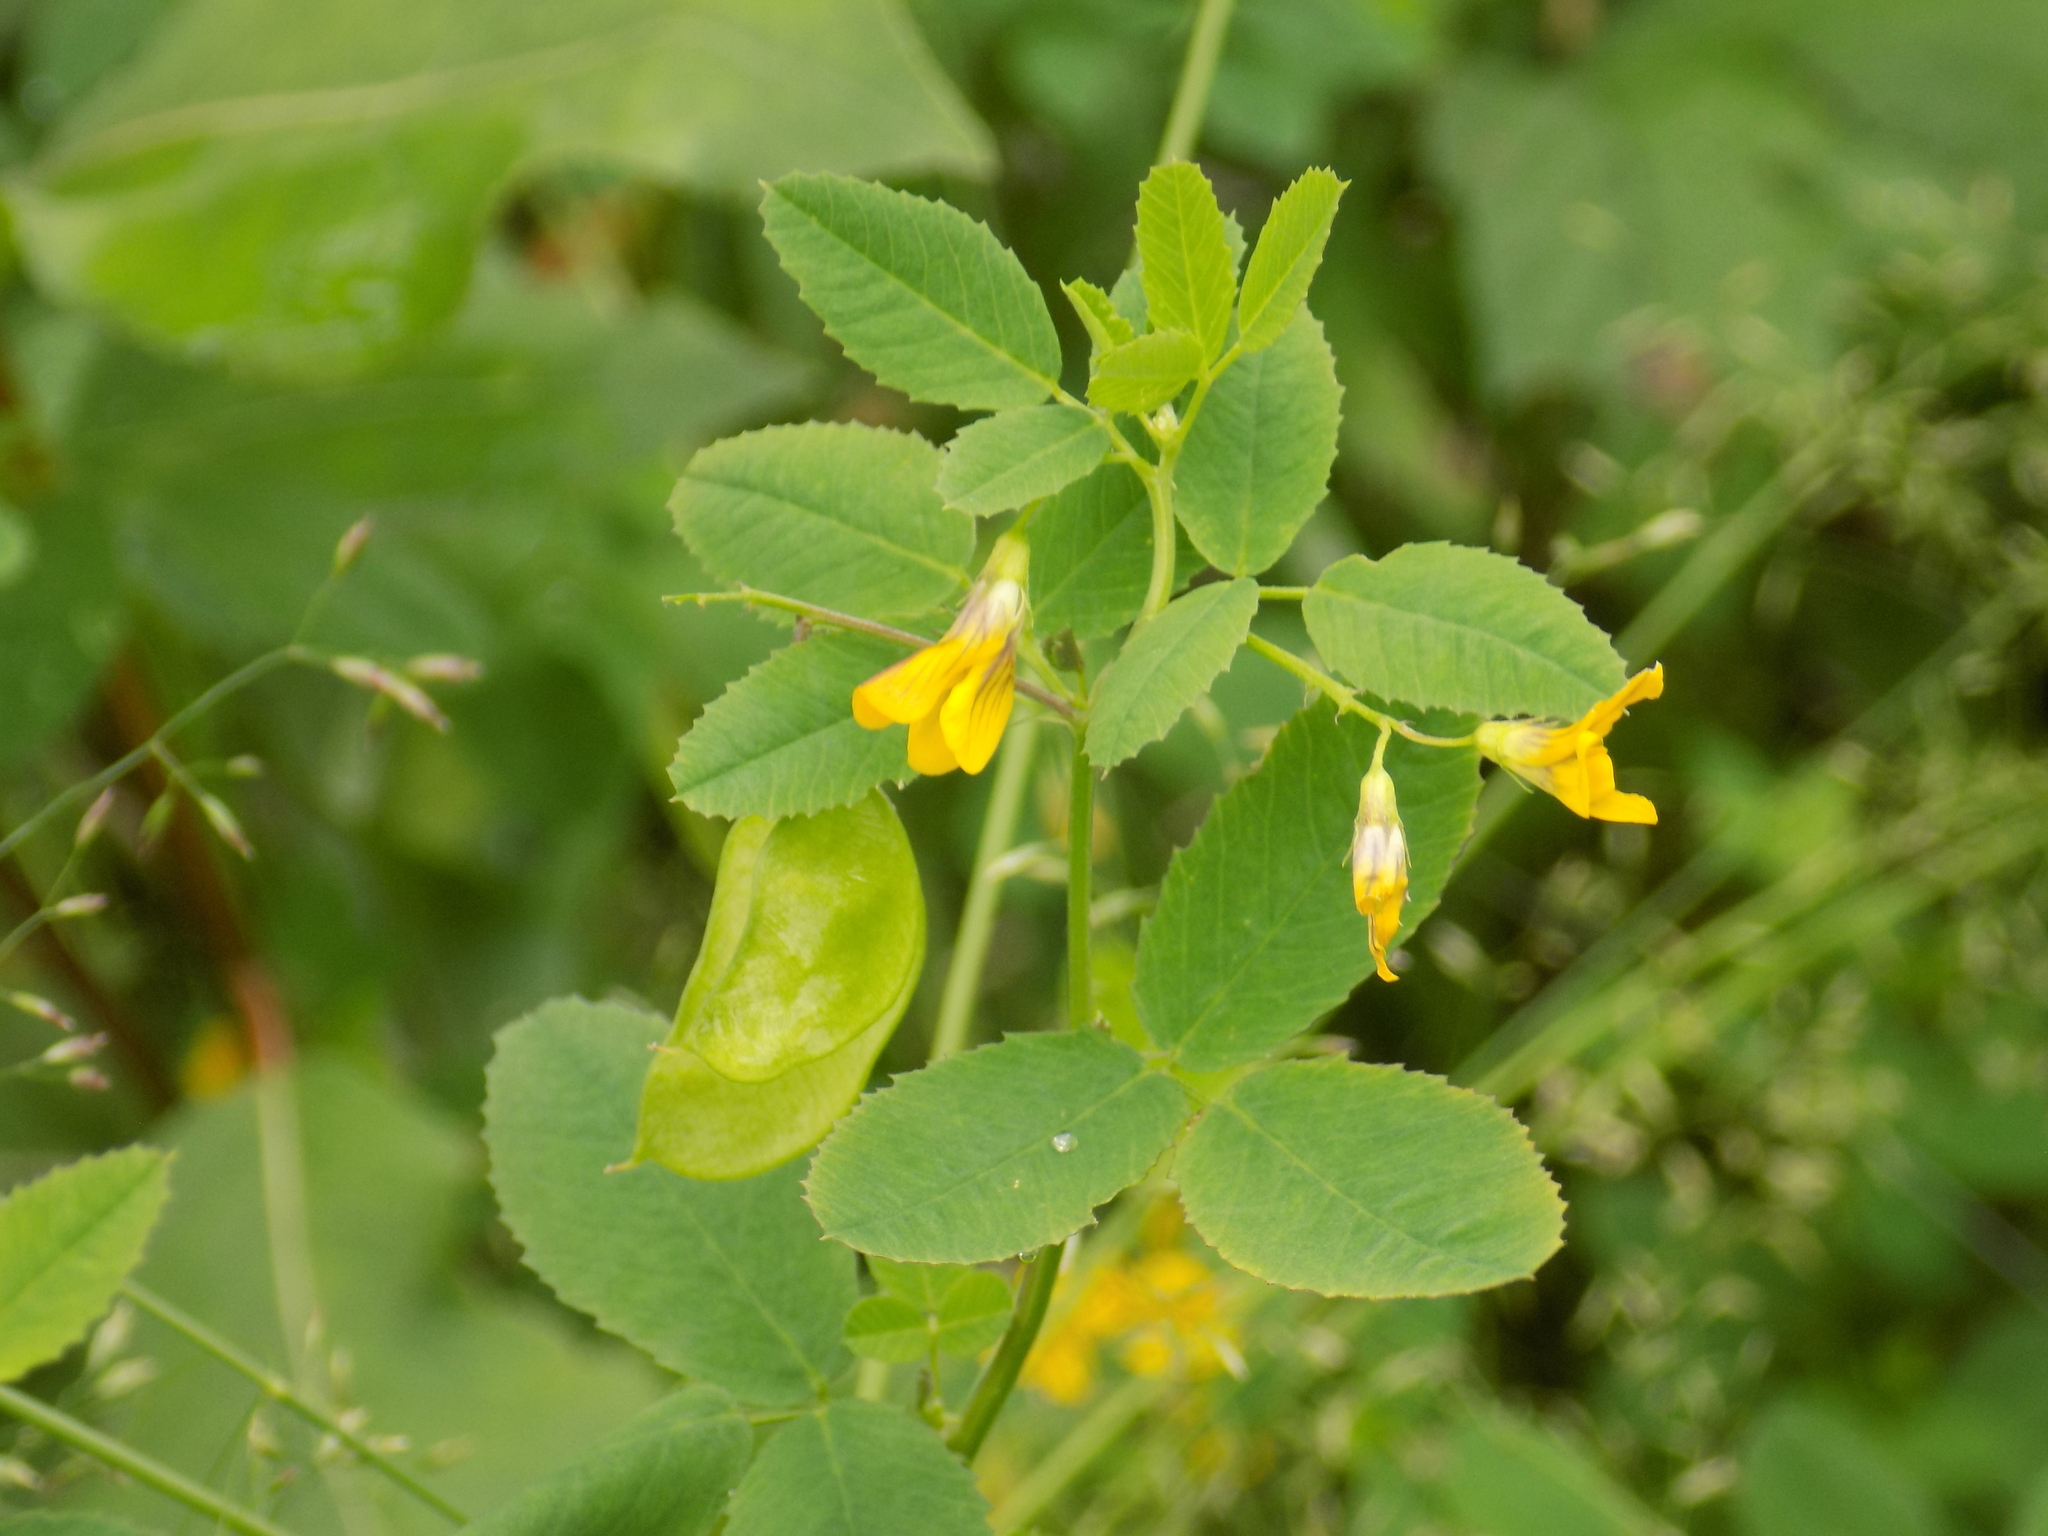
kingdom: Plantae
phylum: Tracheophyta
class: Magnoliopsida
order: Fabales
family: Fabaceae
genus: Medicago
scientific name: Medicago platycarpos
